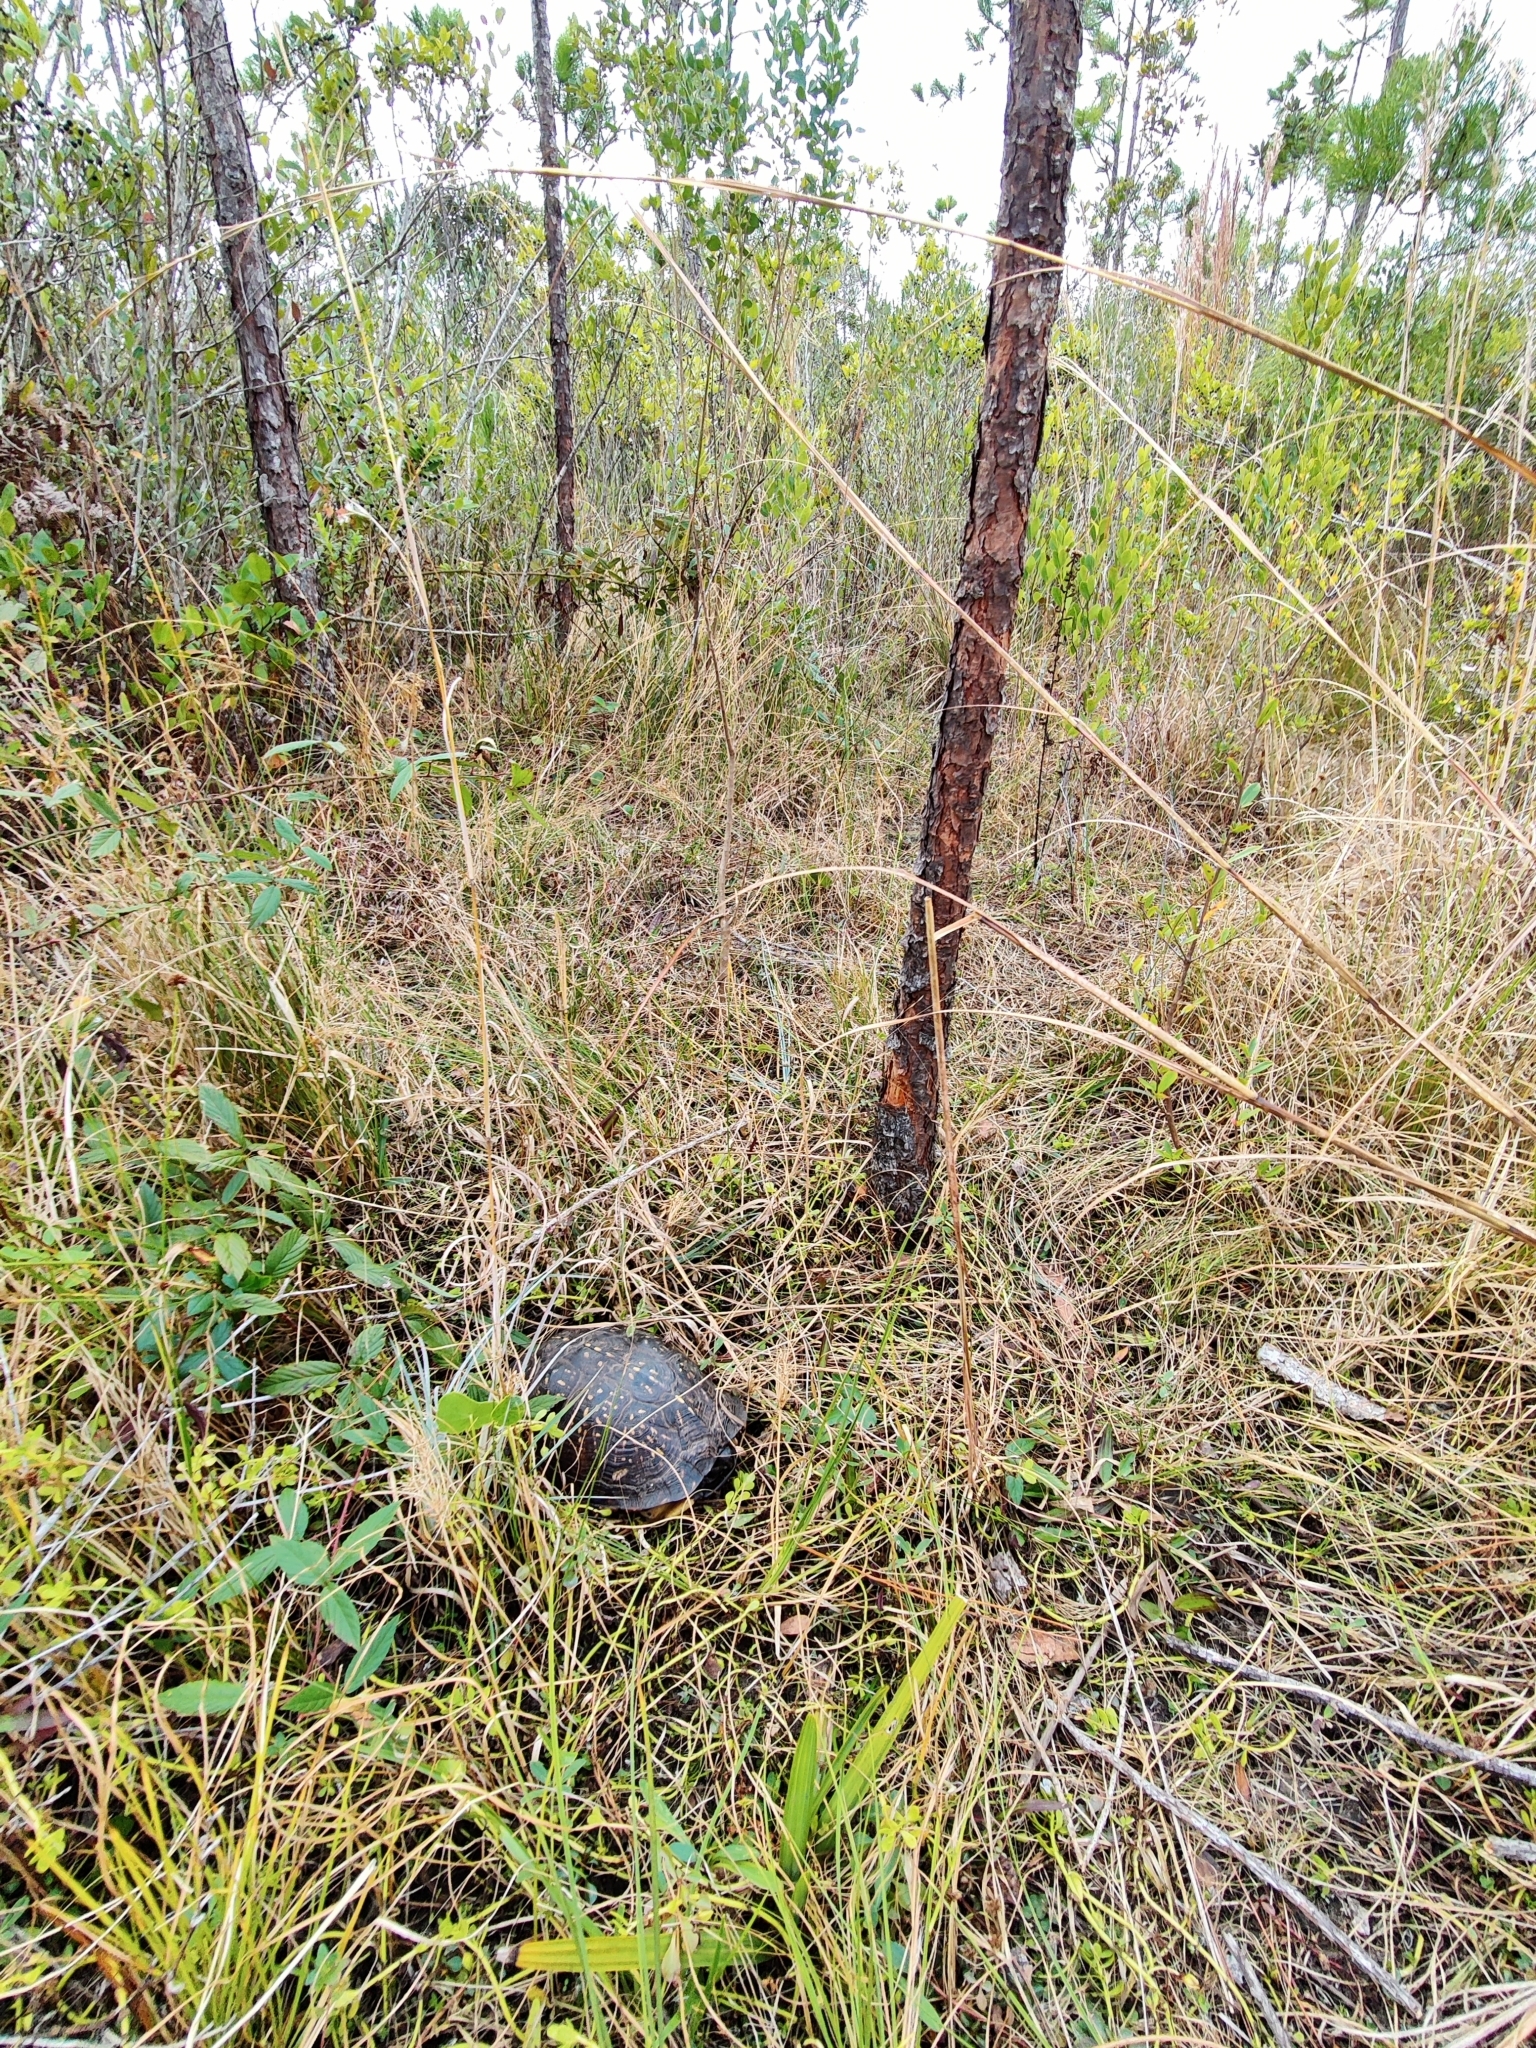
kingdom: Animalia
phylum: Chordata
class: Testudines
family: Emydidae
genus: Terrapene
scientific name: Terrapene carolina
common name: Common box turtle
